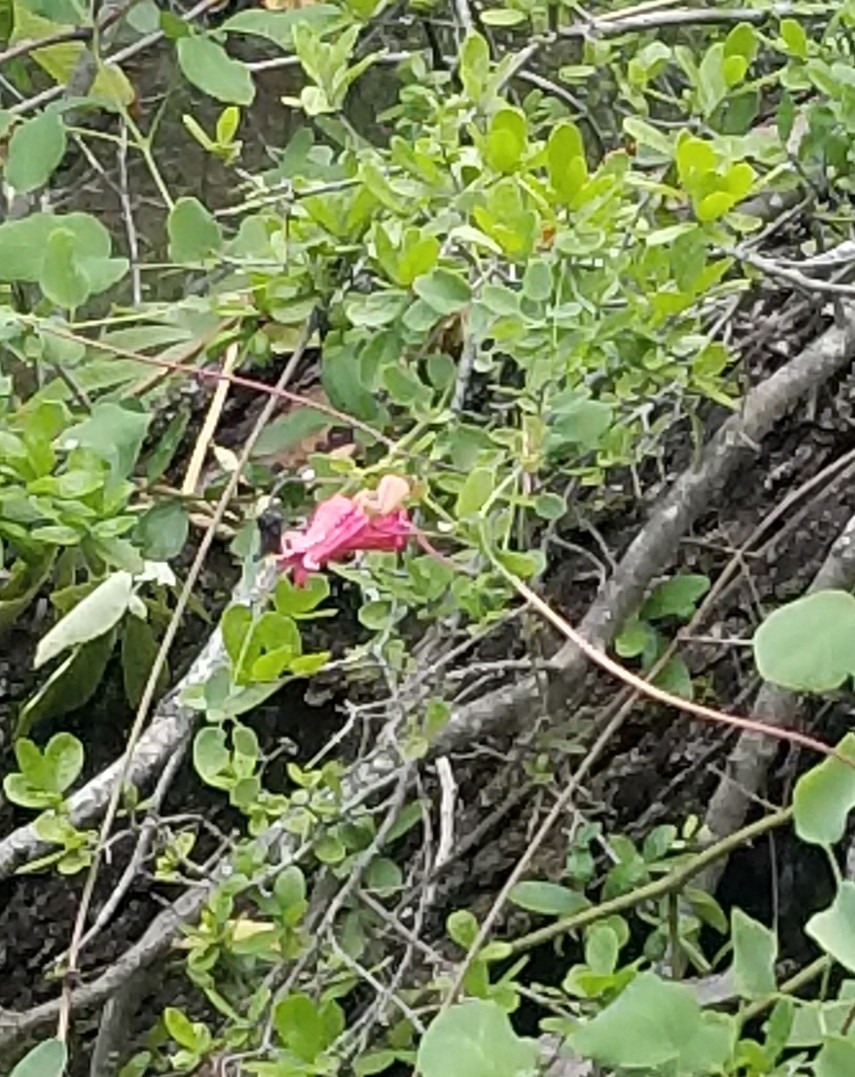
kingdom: Plantae
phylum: Tracheophyta
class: Magnoliopsida
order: Ranunculales
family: Ranunculaceae
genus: Clematis
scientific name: Clematis texensis
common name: Crimson clematis
